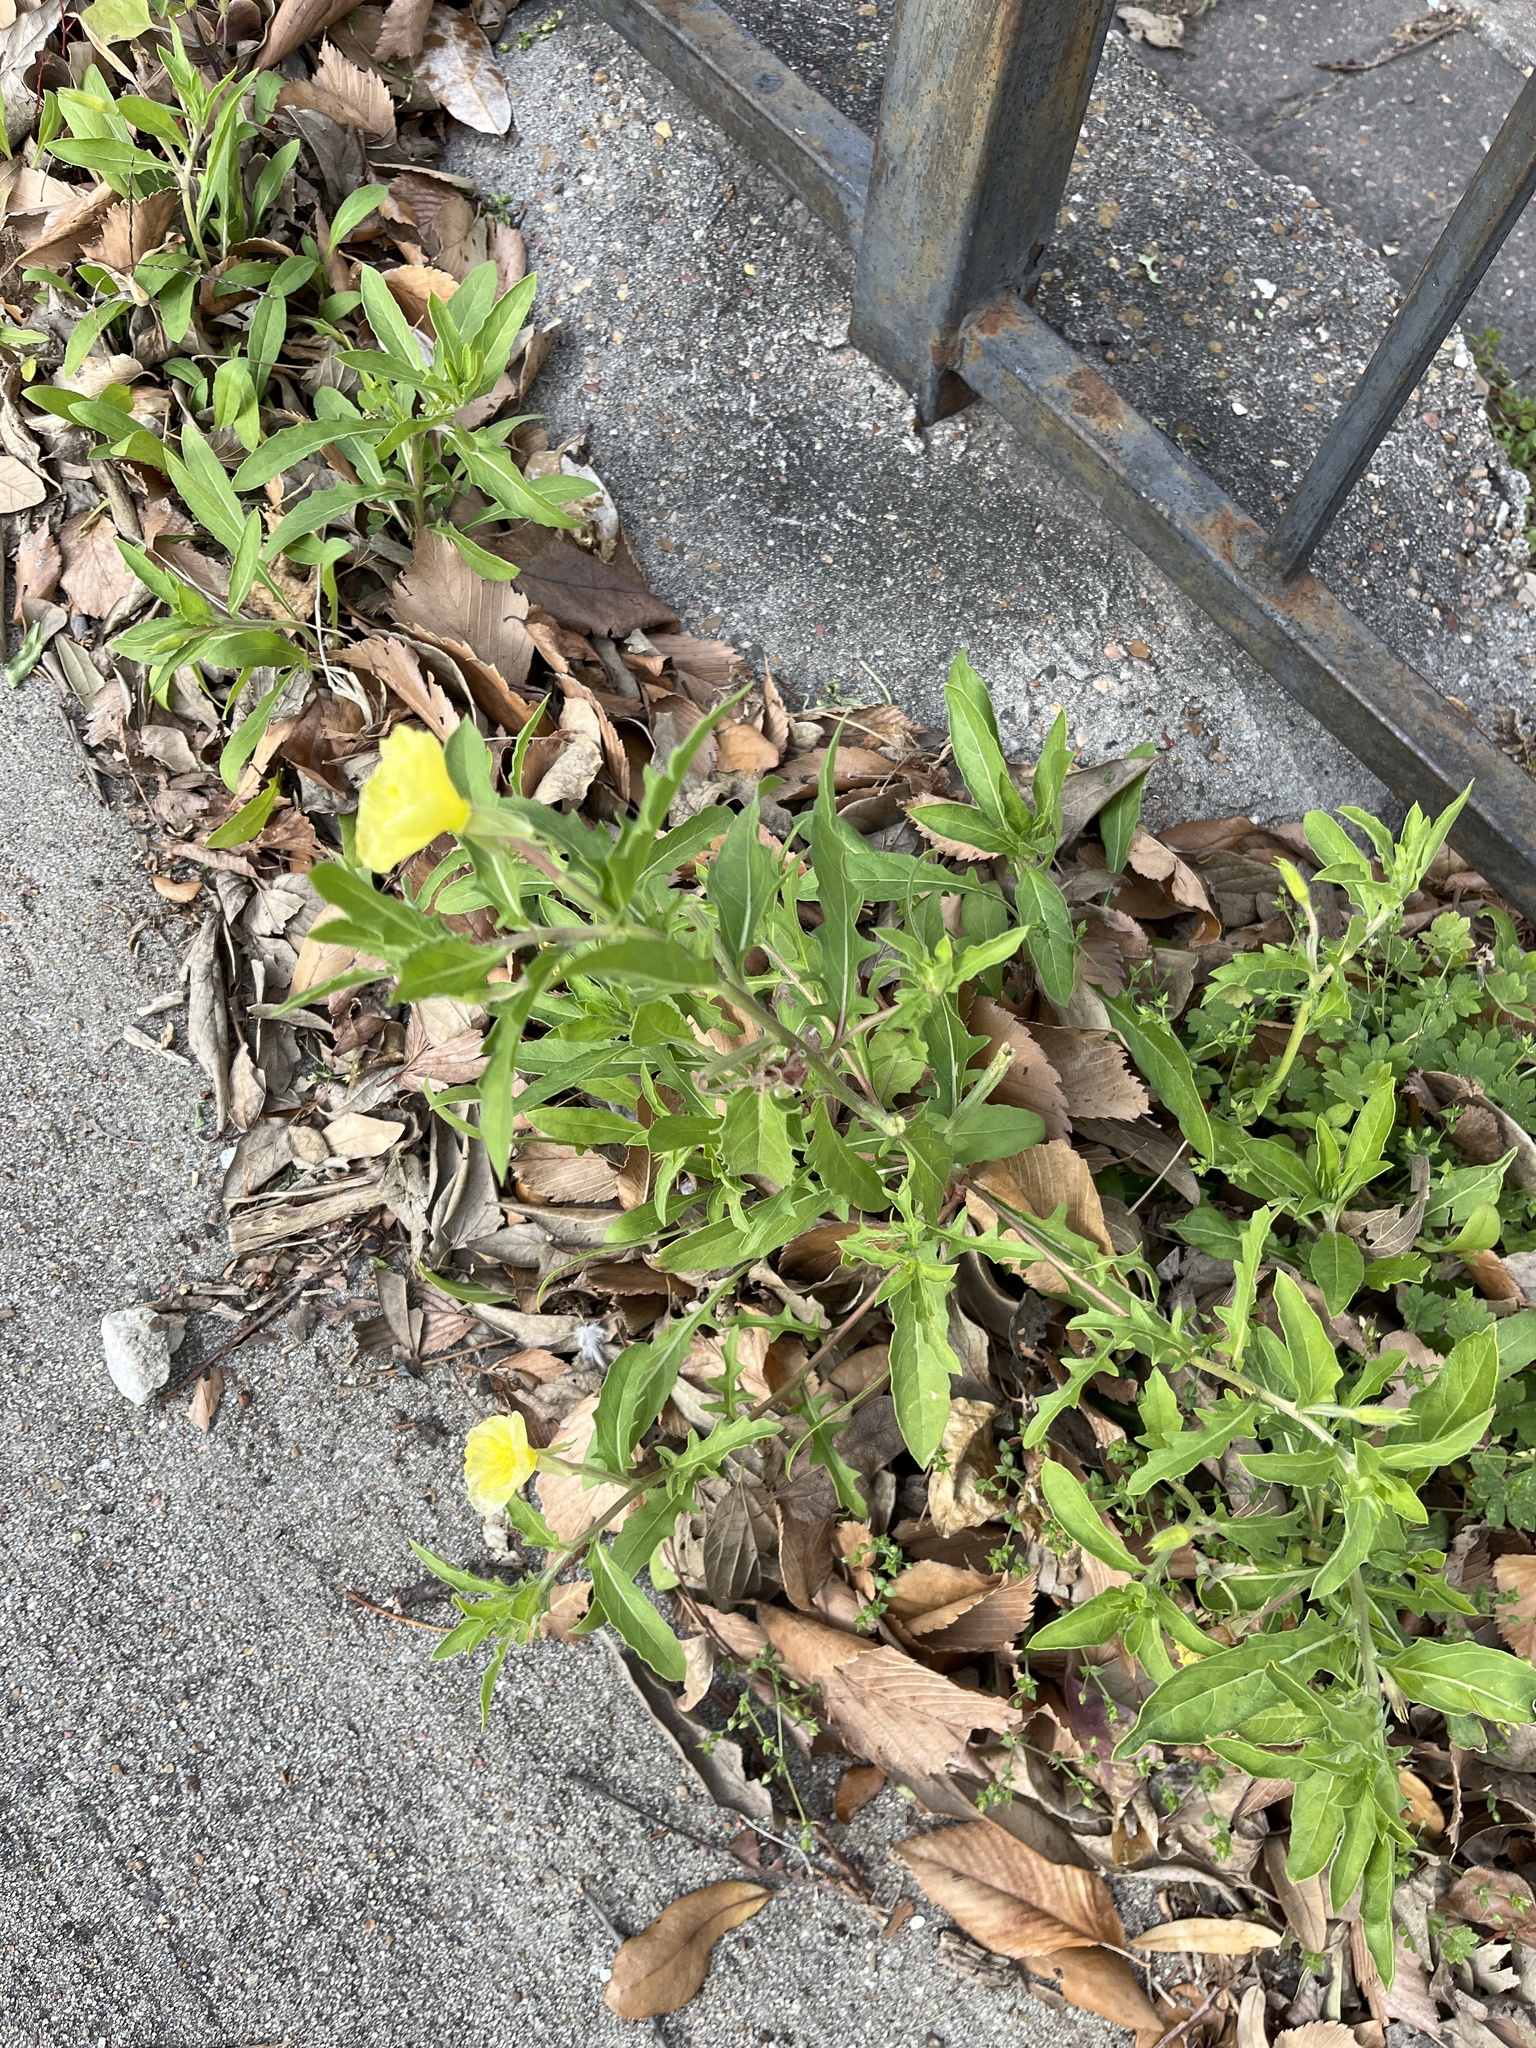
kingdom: Plantae
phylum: Tracheophyta
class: Magnoliopsida
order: Myrtales
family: Onagraceae
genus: Oenothera
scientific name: Oenothera laciniata
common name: Cut-leaved evening-primrose
